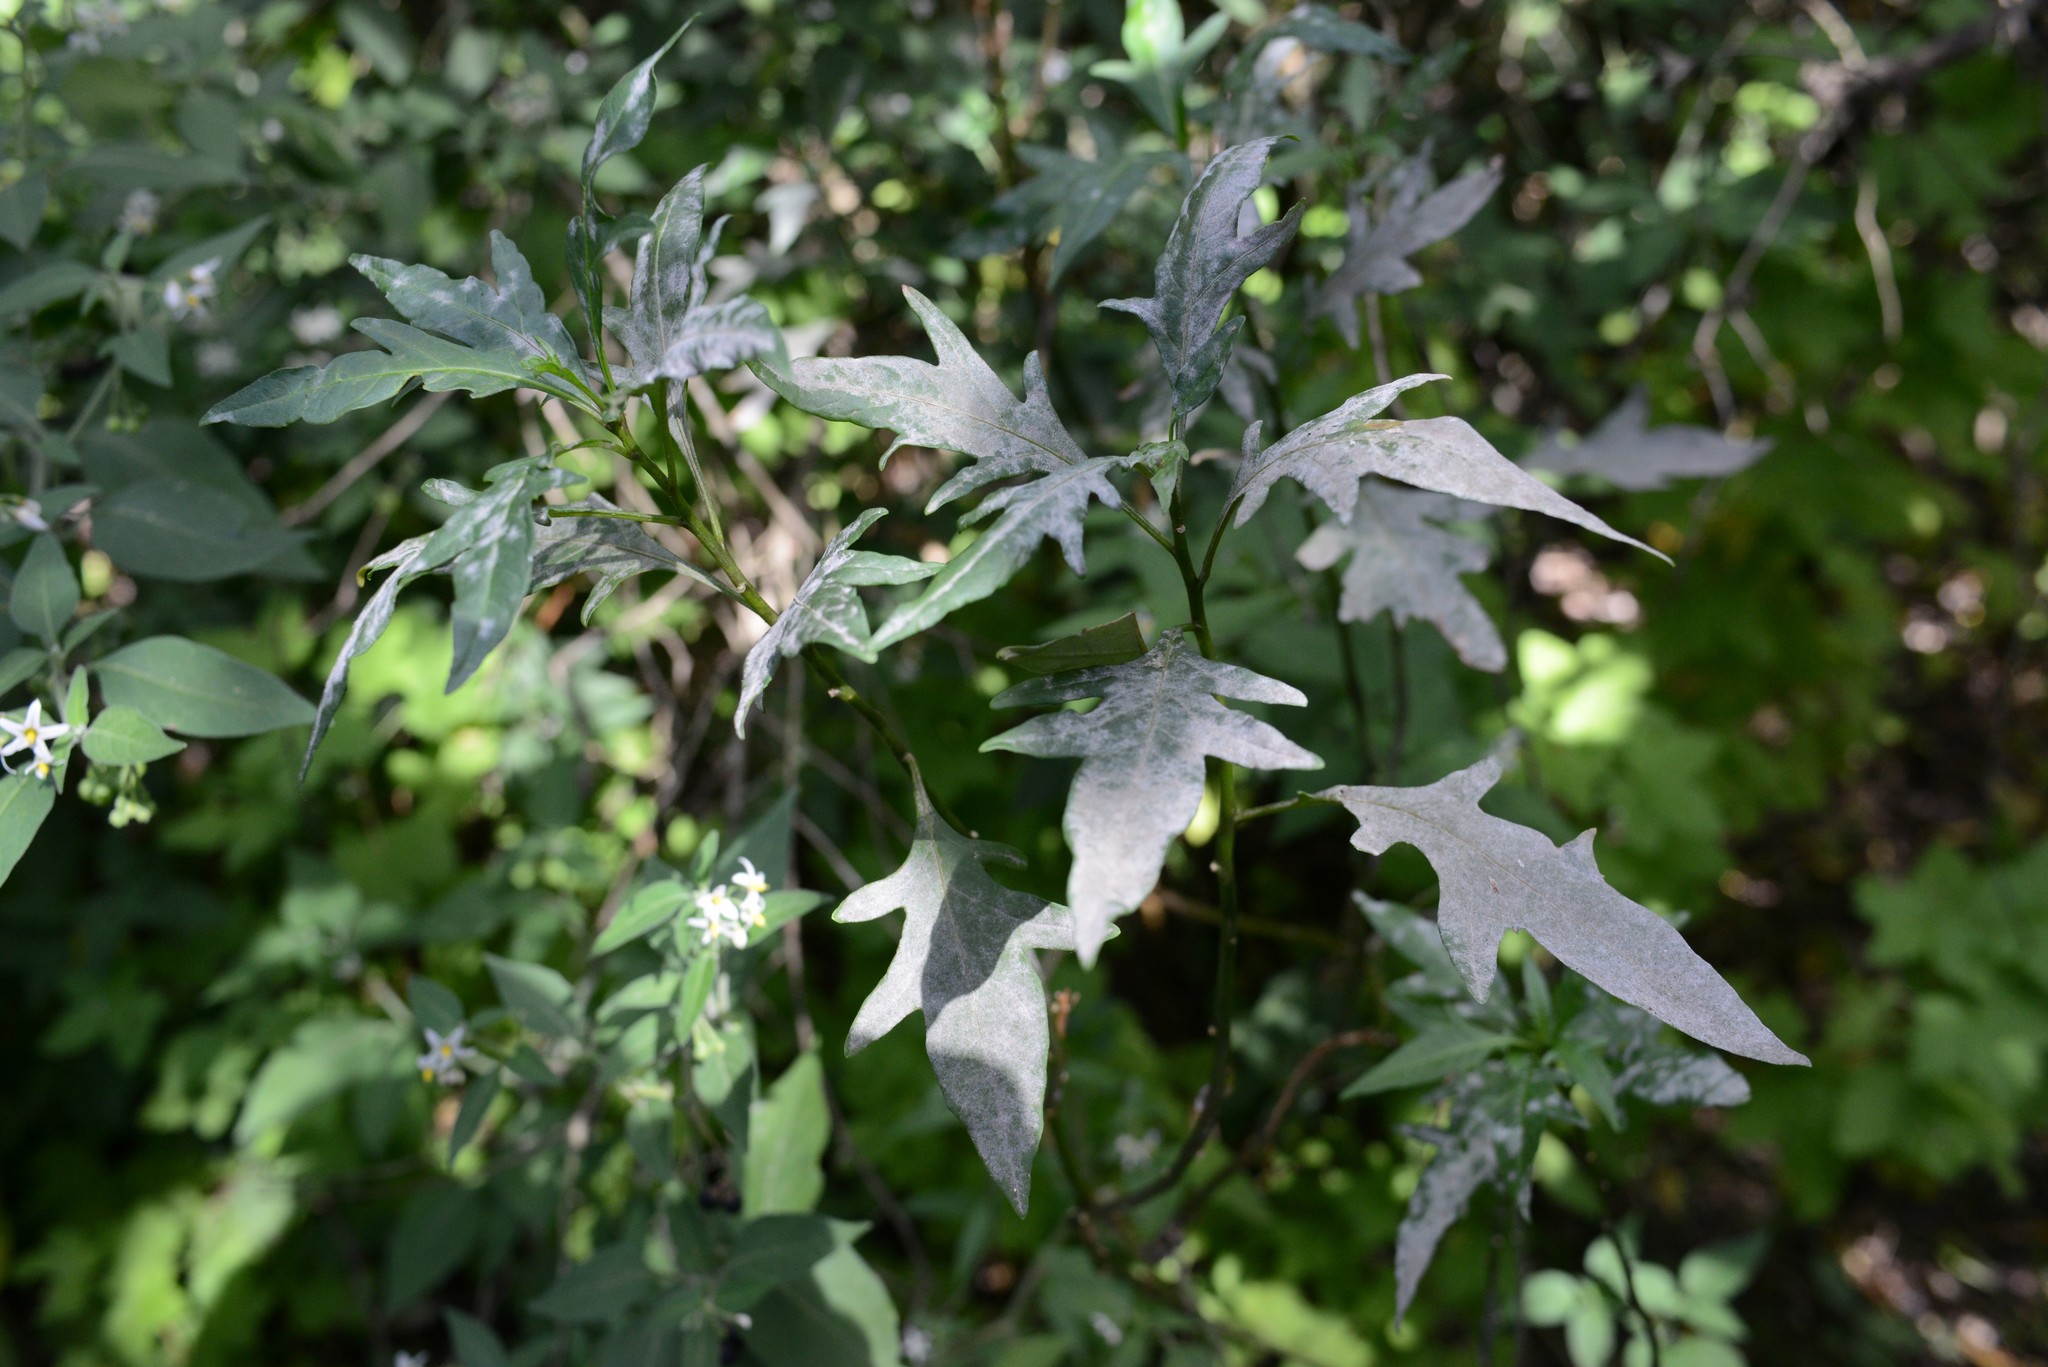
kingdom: Fungi
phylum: Ascomycota
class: Leotiomycetes
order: Helotiales
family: Erysiphaceae
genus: Golovinomyces
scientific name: Golovinomyces longipes
